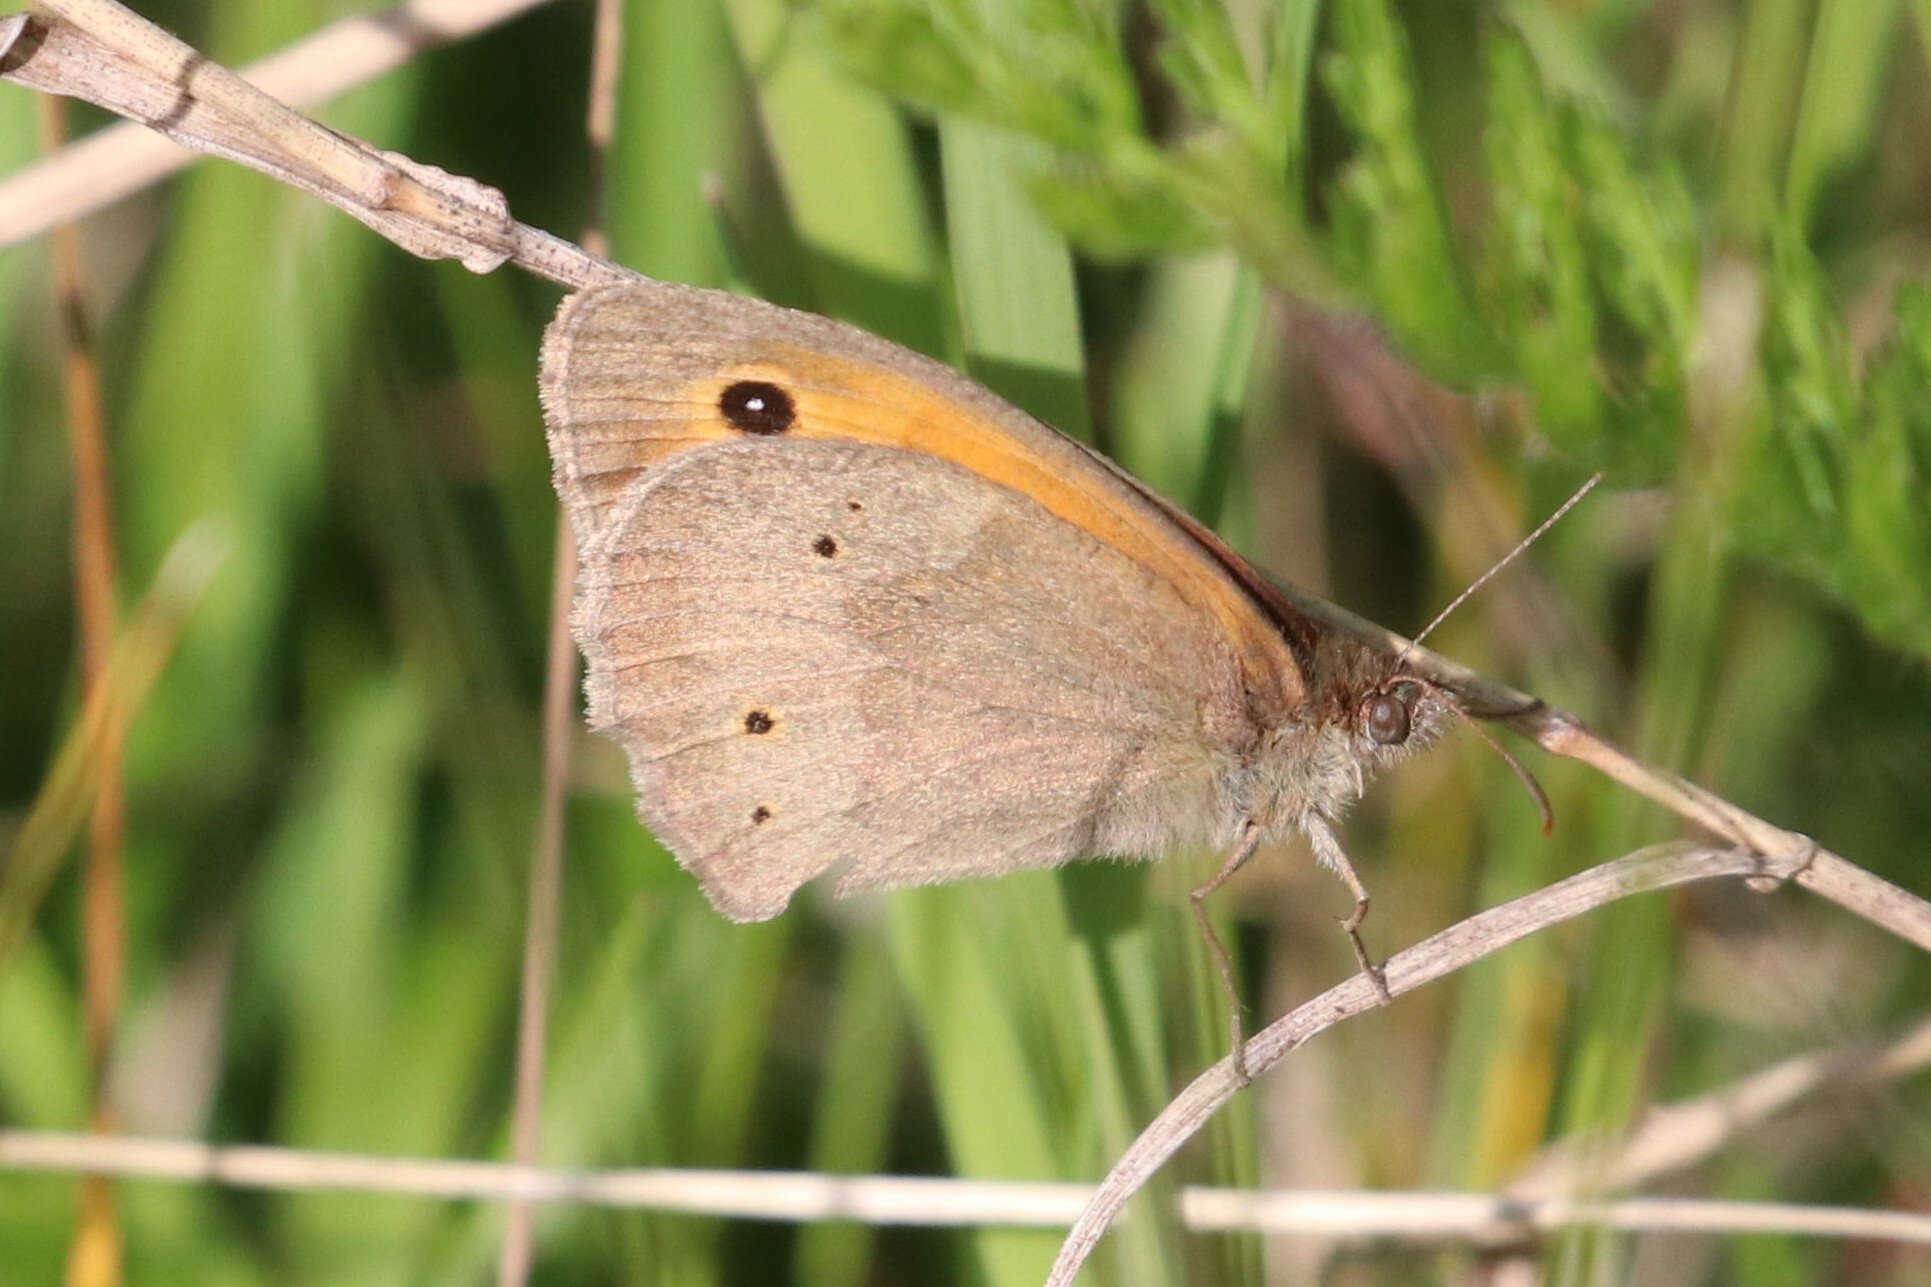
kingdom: Animalia
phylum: Arthropoda
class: Insecta
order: Lepidoptera
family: Nymphalidae
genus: Maniola
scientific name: Maniola jurtina
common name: Meadow brown
